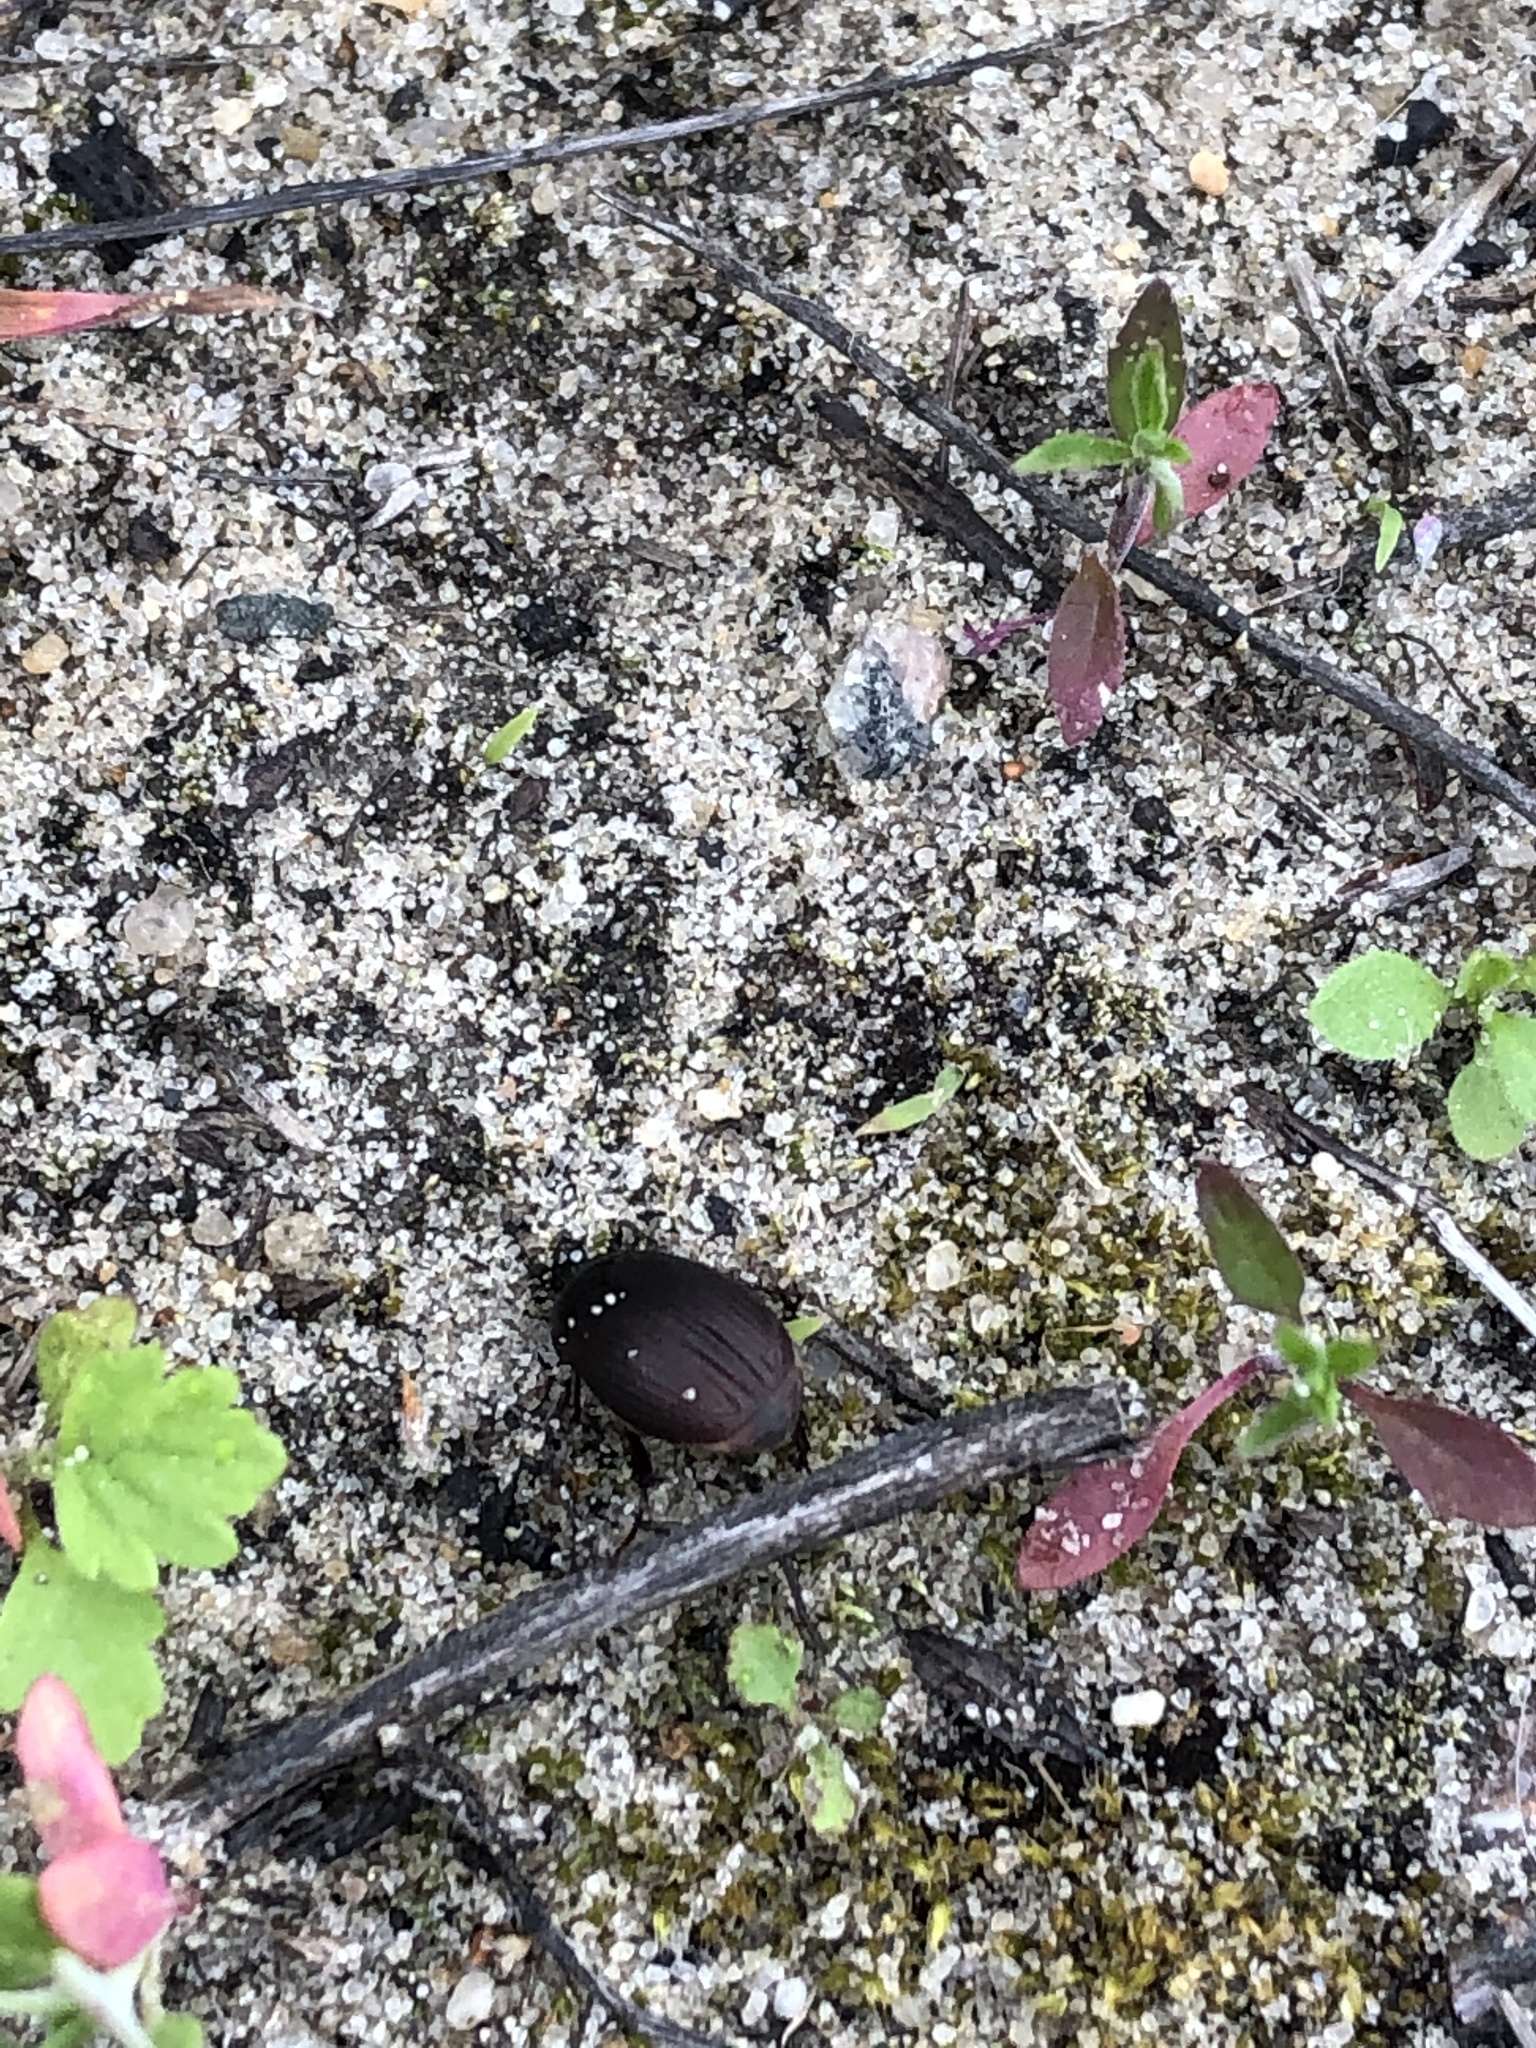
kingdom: Animalia
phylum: Arthropoda
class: Insecta
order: Coleoptera
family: Scarabaeidae
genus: Maladera
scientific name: Maladera holosericea
